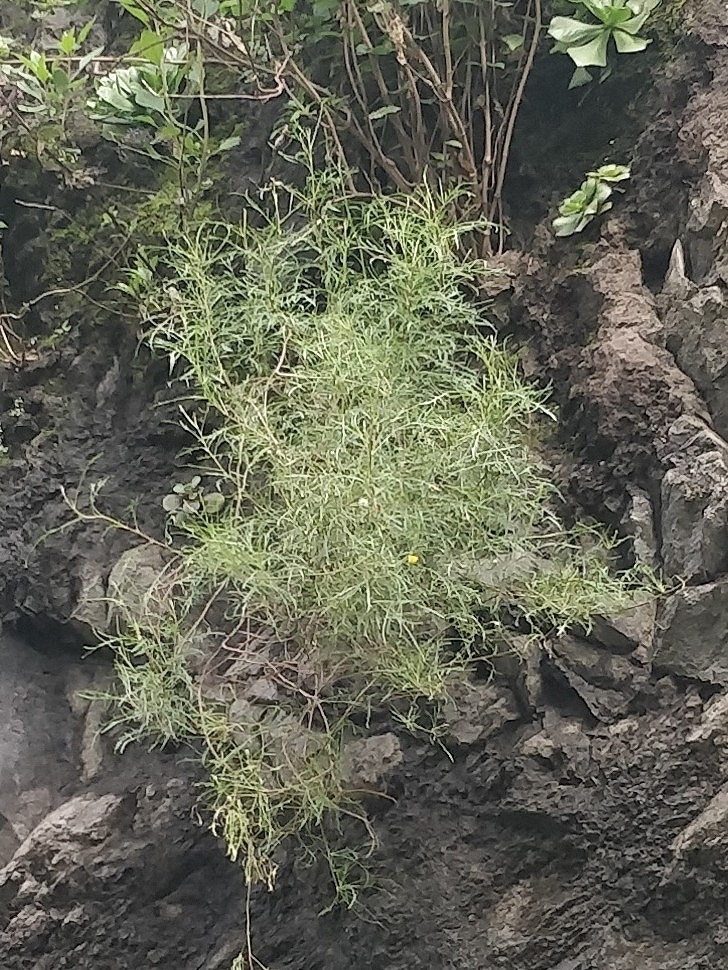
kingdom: Plantae
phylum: Tracheophyta
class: Magnoliopsida
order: Asterales
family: Asteraceae
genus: Tolpis
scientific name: Tolpis succulenta
